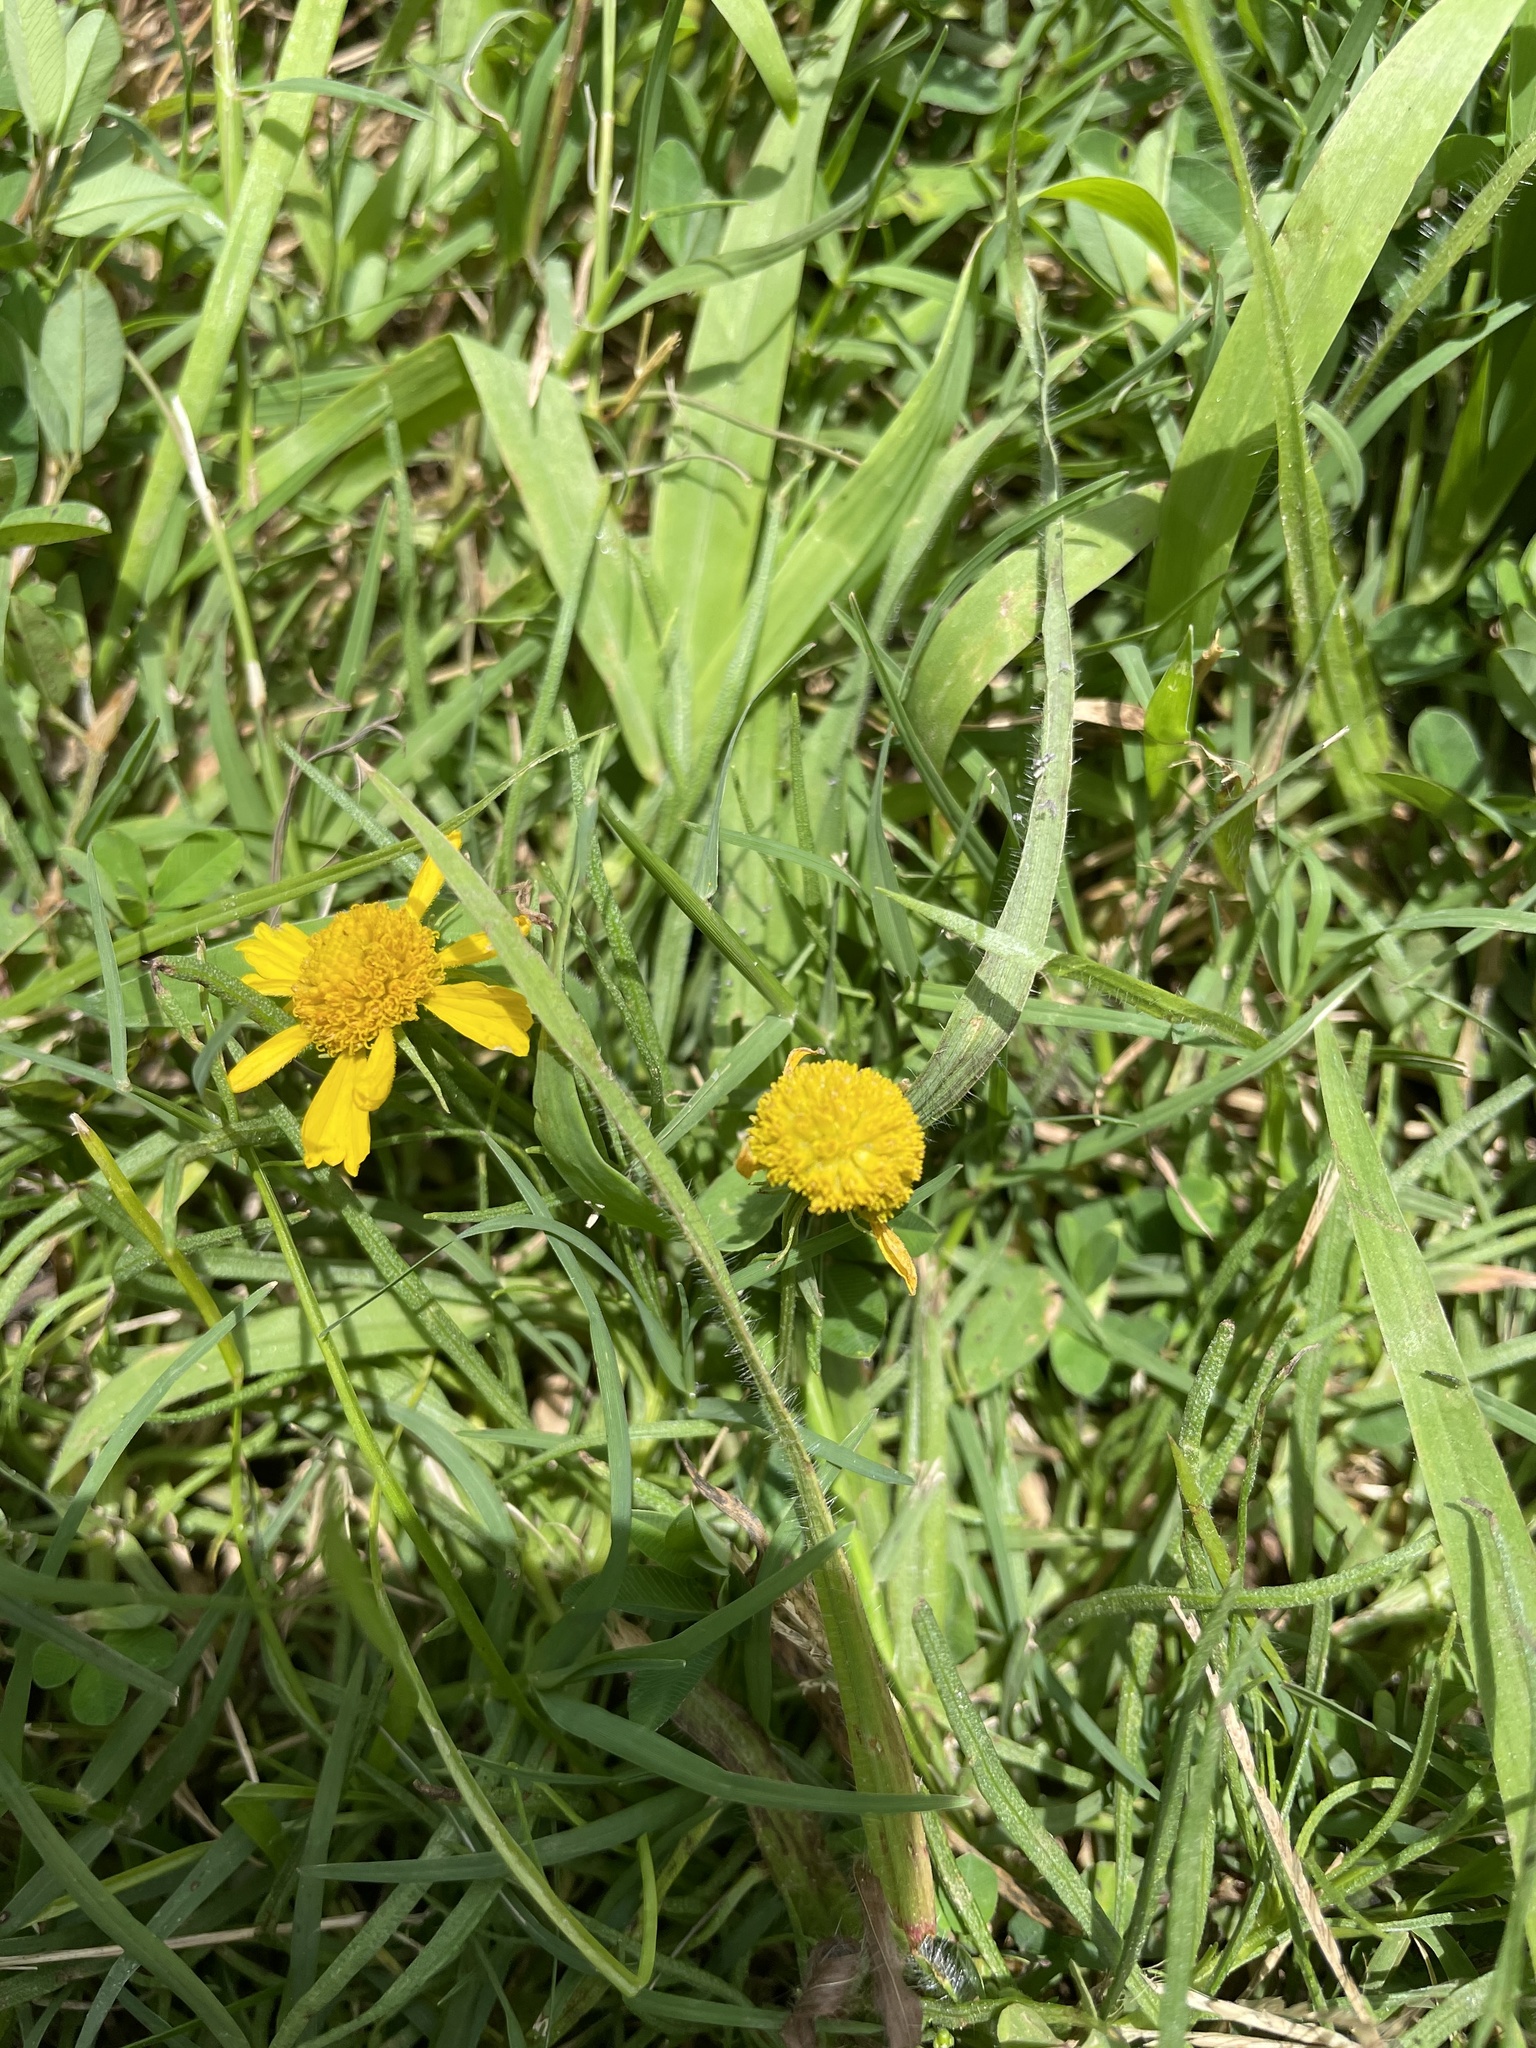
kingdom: Plantae
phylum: Tracheophyta
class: Magnoliopsida
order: Asterales
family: Asteraceae
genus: Helenium
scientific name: Helenium amarum
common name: Bitter sneezeweed
